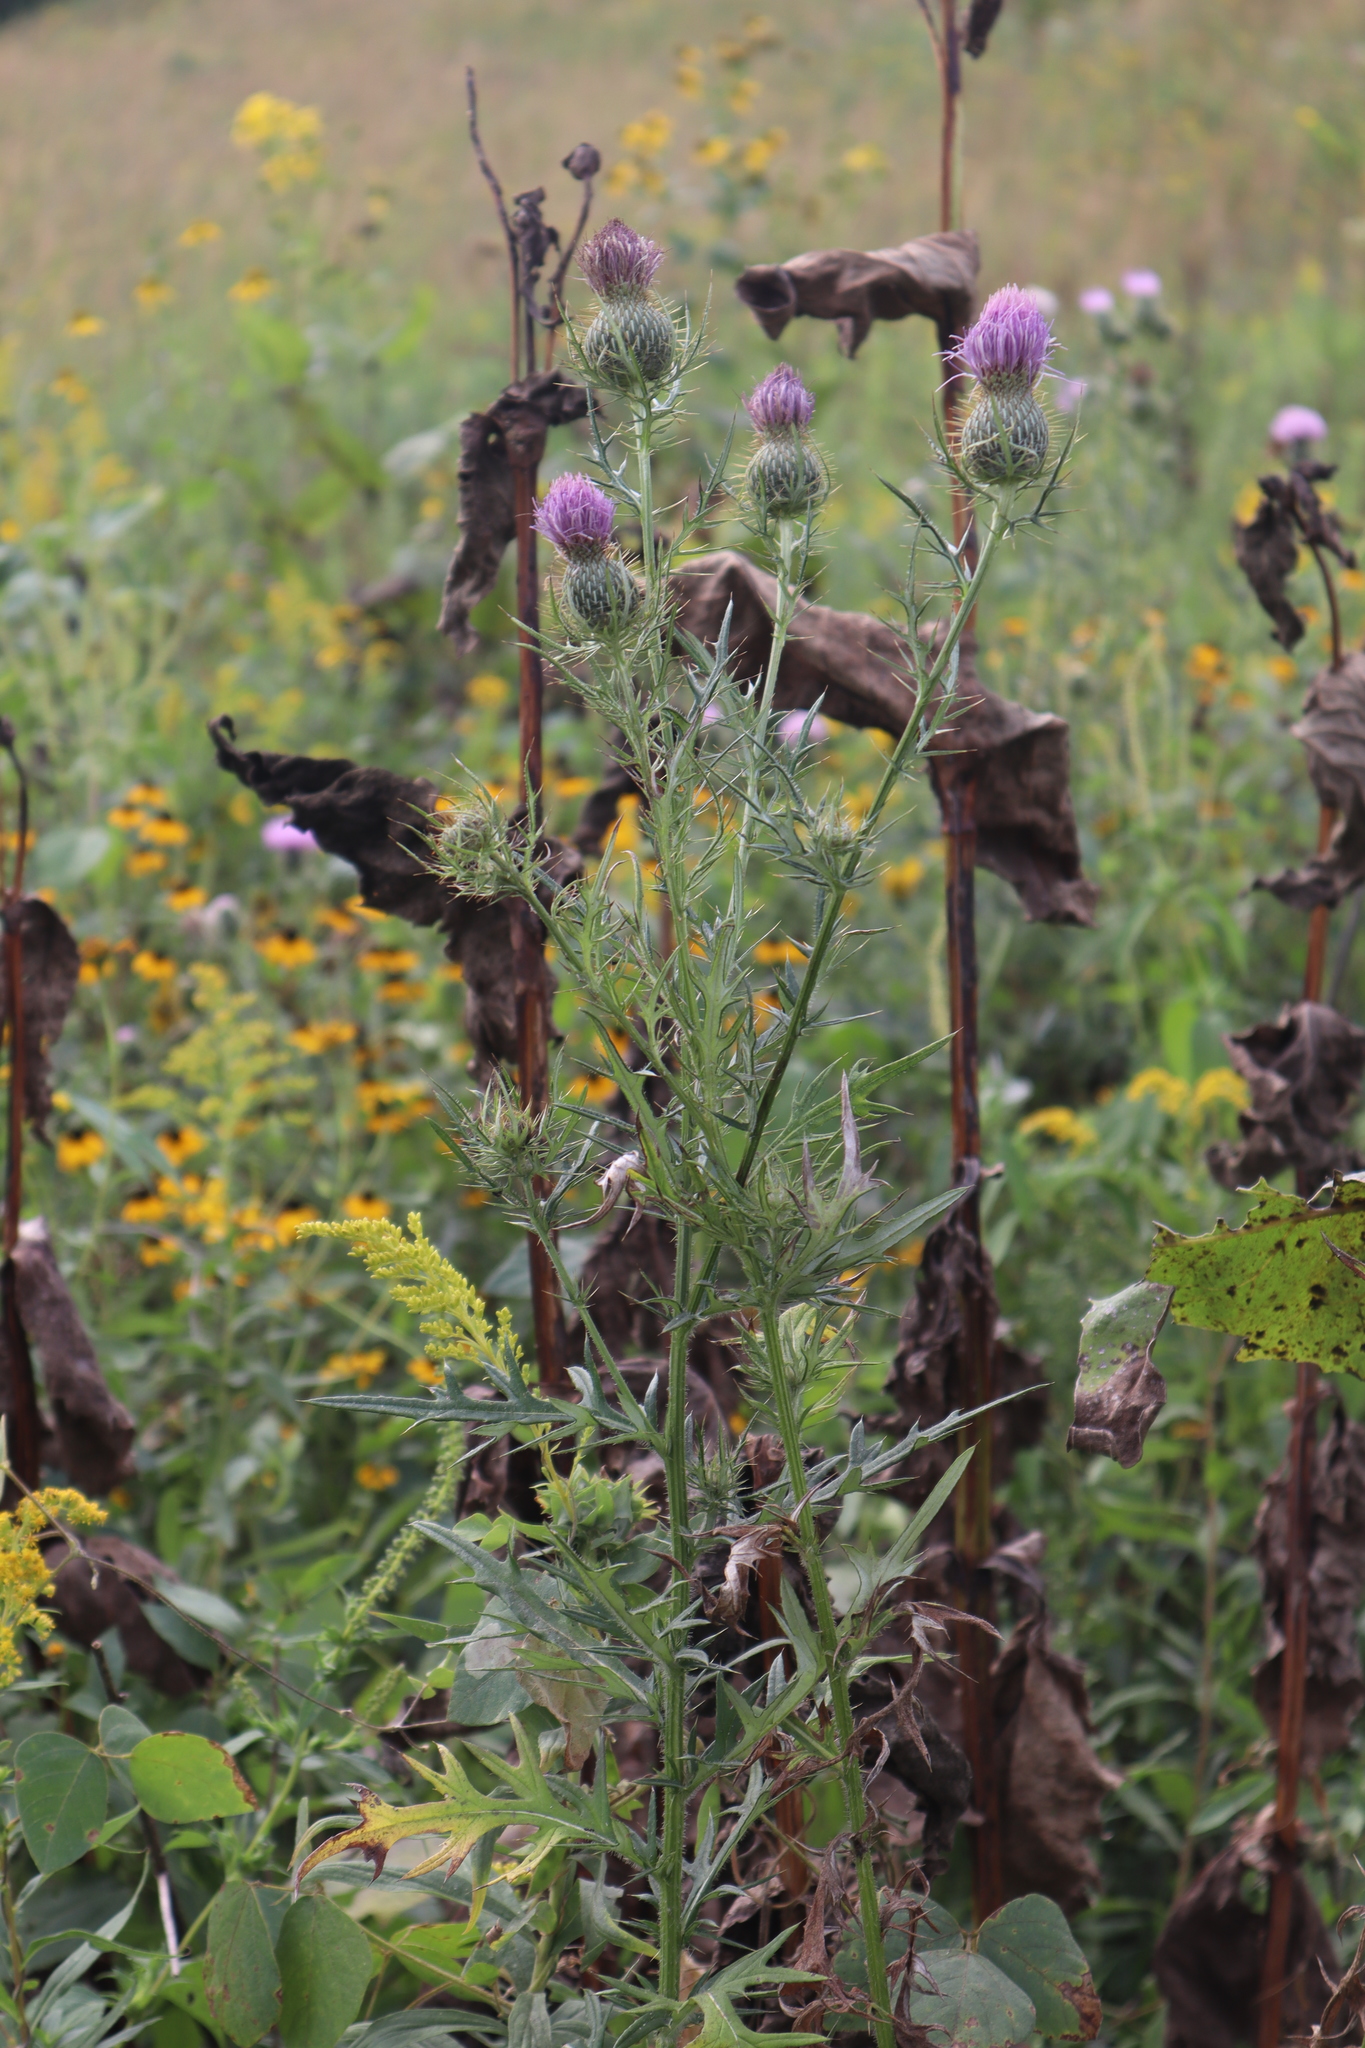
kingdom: Plantae
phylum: Tracheophyta
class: Magnoliopsida
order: Asterales
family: Asteraceae
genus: Cirsium
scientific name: Cirsium discolor
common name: Field thistle
